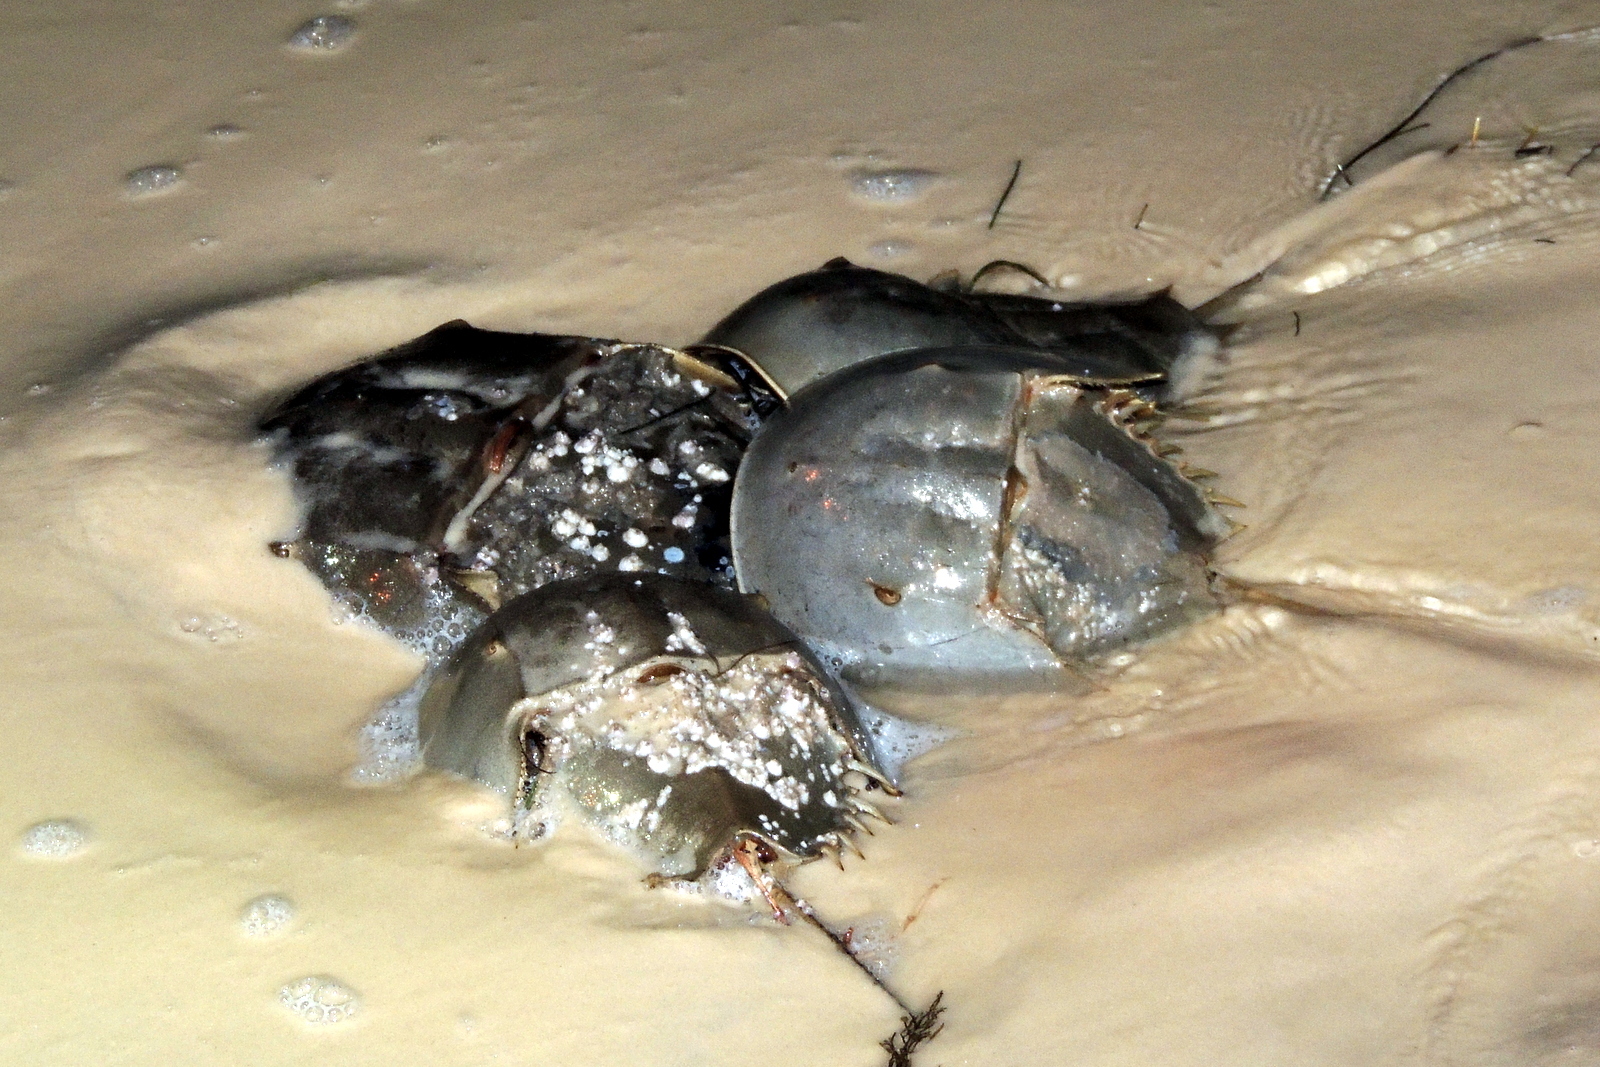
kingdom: Animalia
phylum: Arthropoda
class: Merostomata
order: Xiphosurida
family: Limulidae
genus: Limulus
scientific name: Limulus polyphemus
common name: Horseshoe crab
